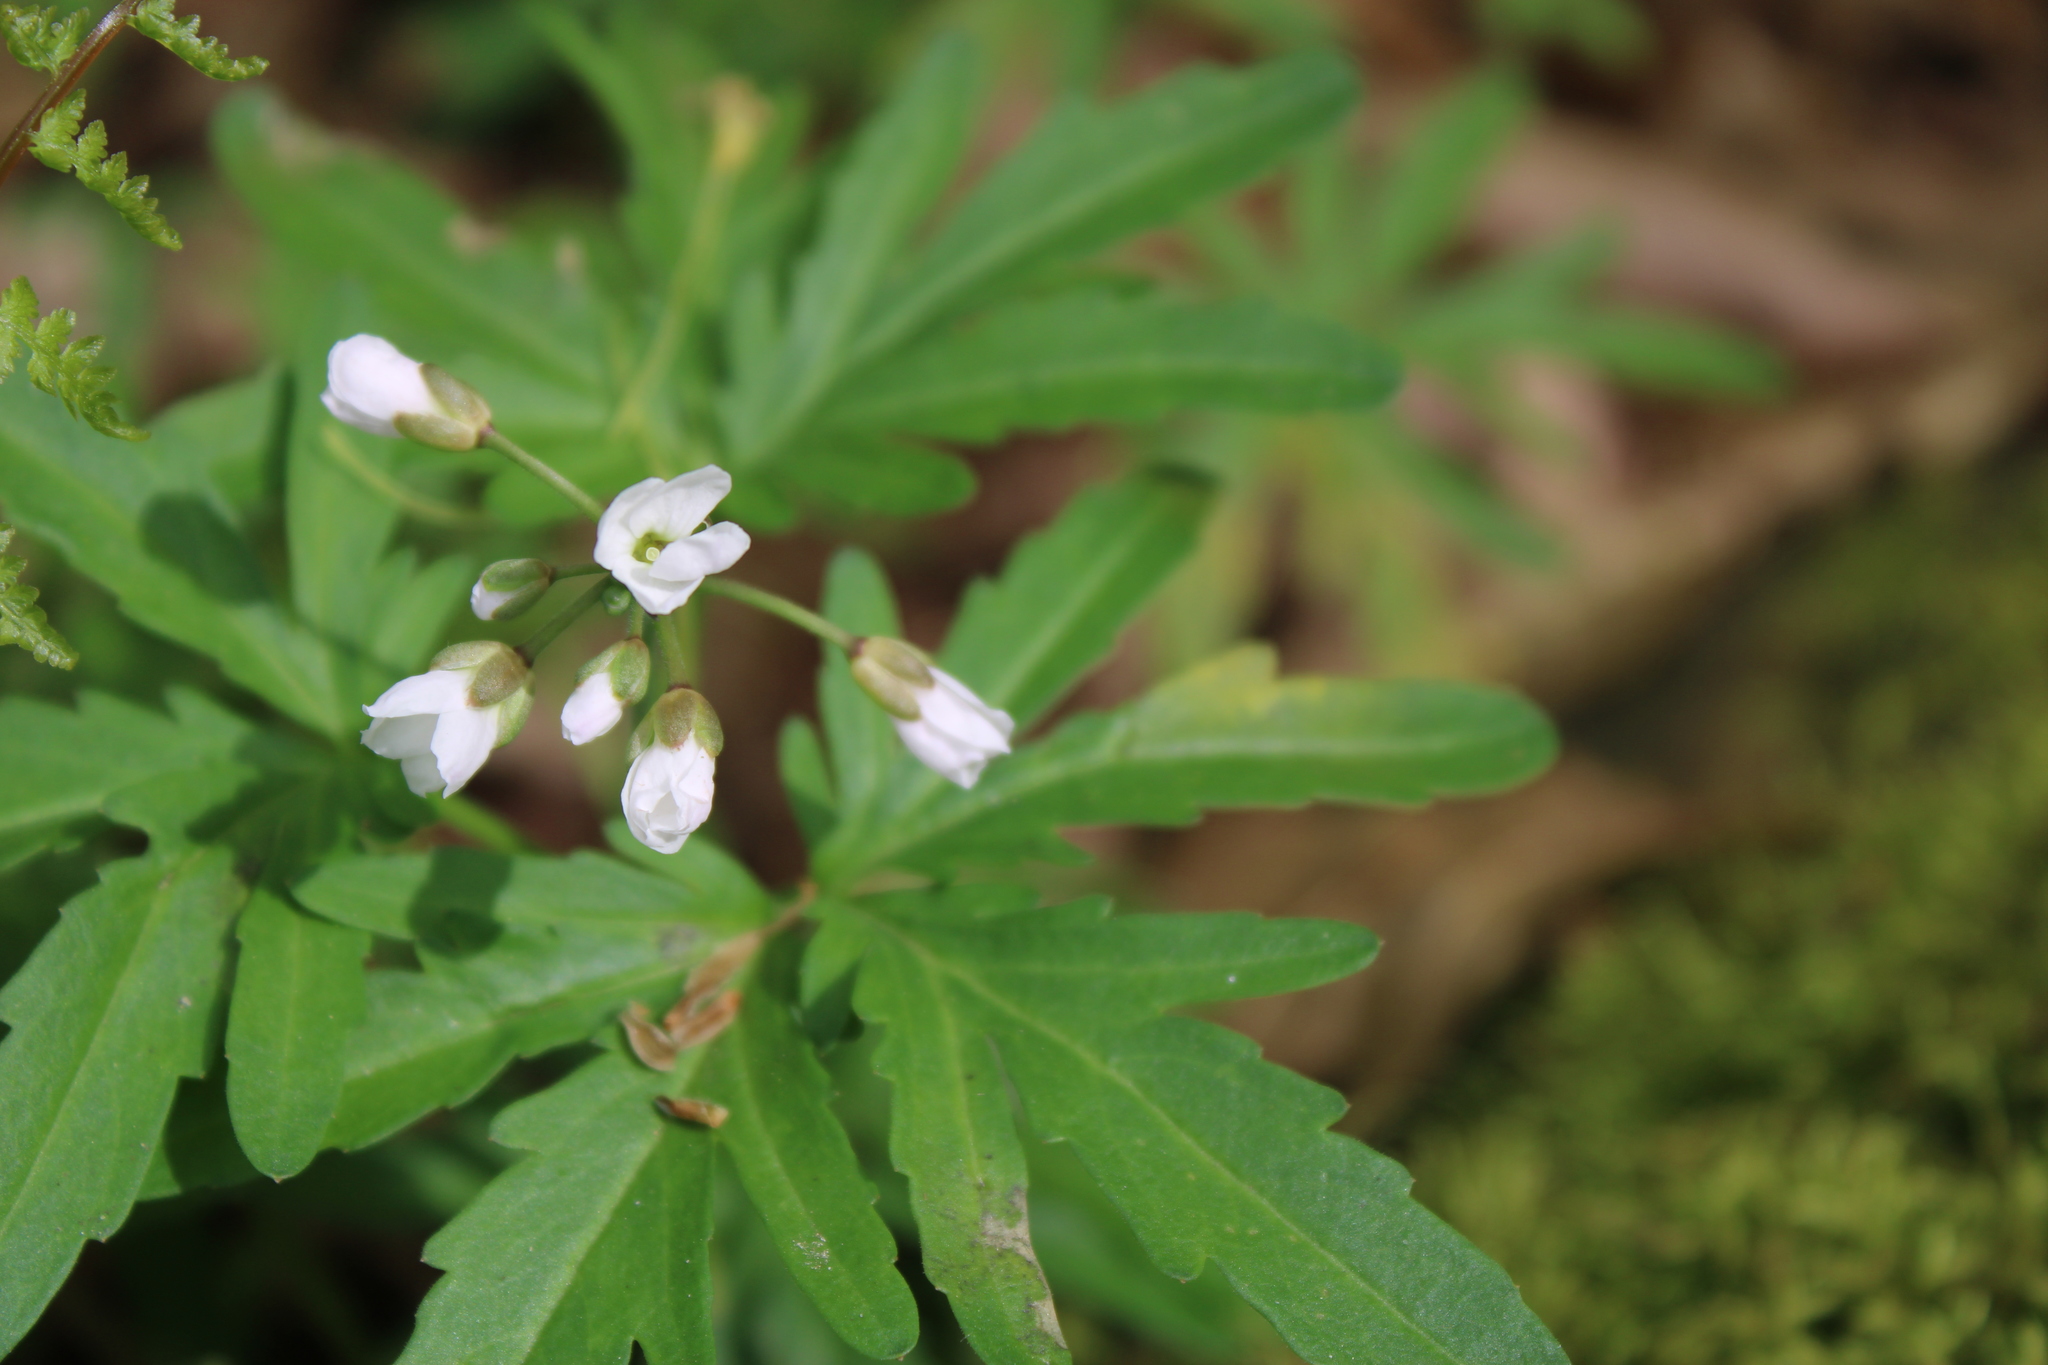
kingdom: Plantae
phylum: Tracheophyta
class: Magnoliopsida
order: Brassicales
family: Brassicaceae
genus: Cardamine
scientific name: Cardamine concatenata
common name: Cut-leaf toothcup
